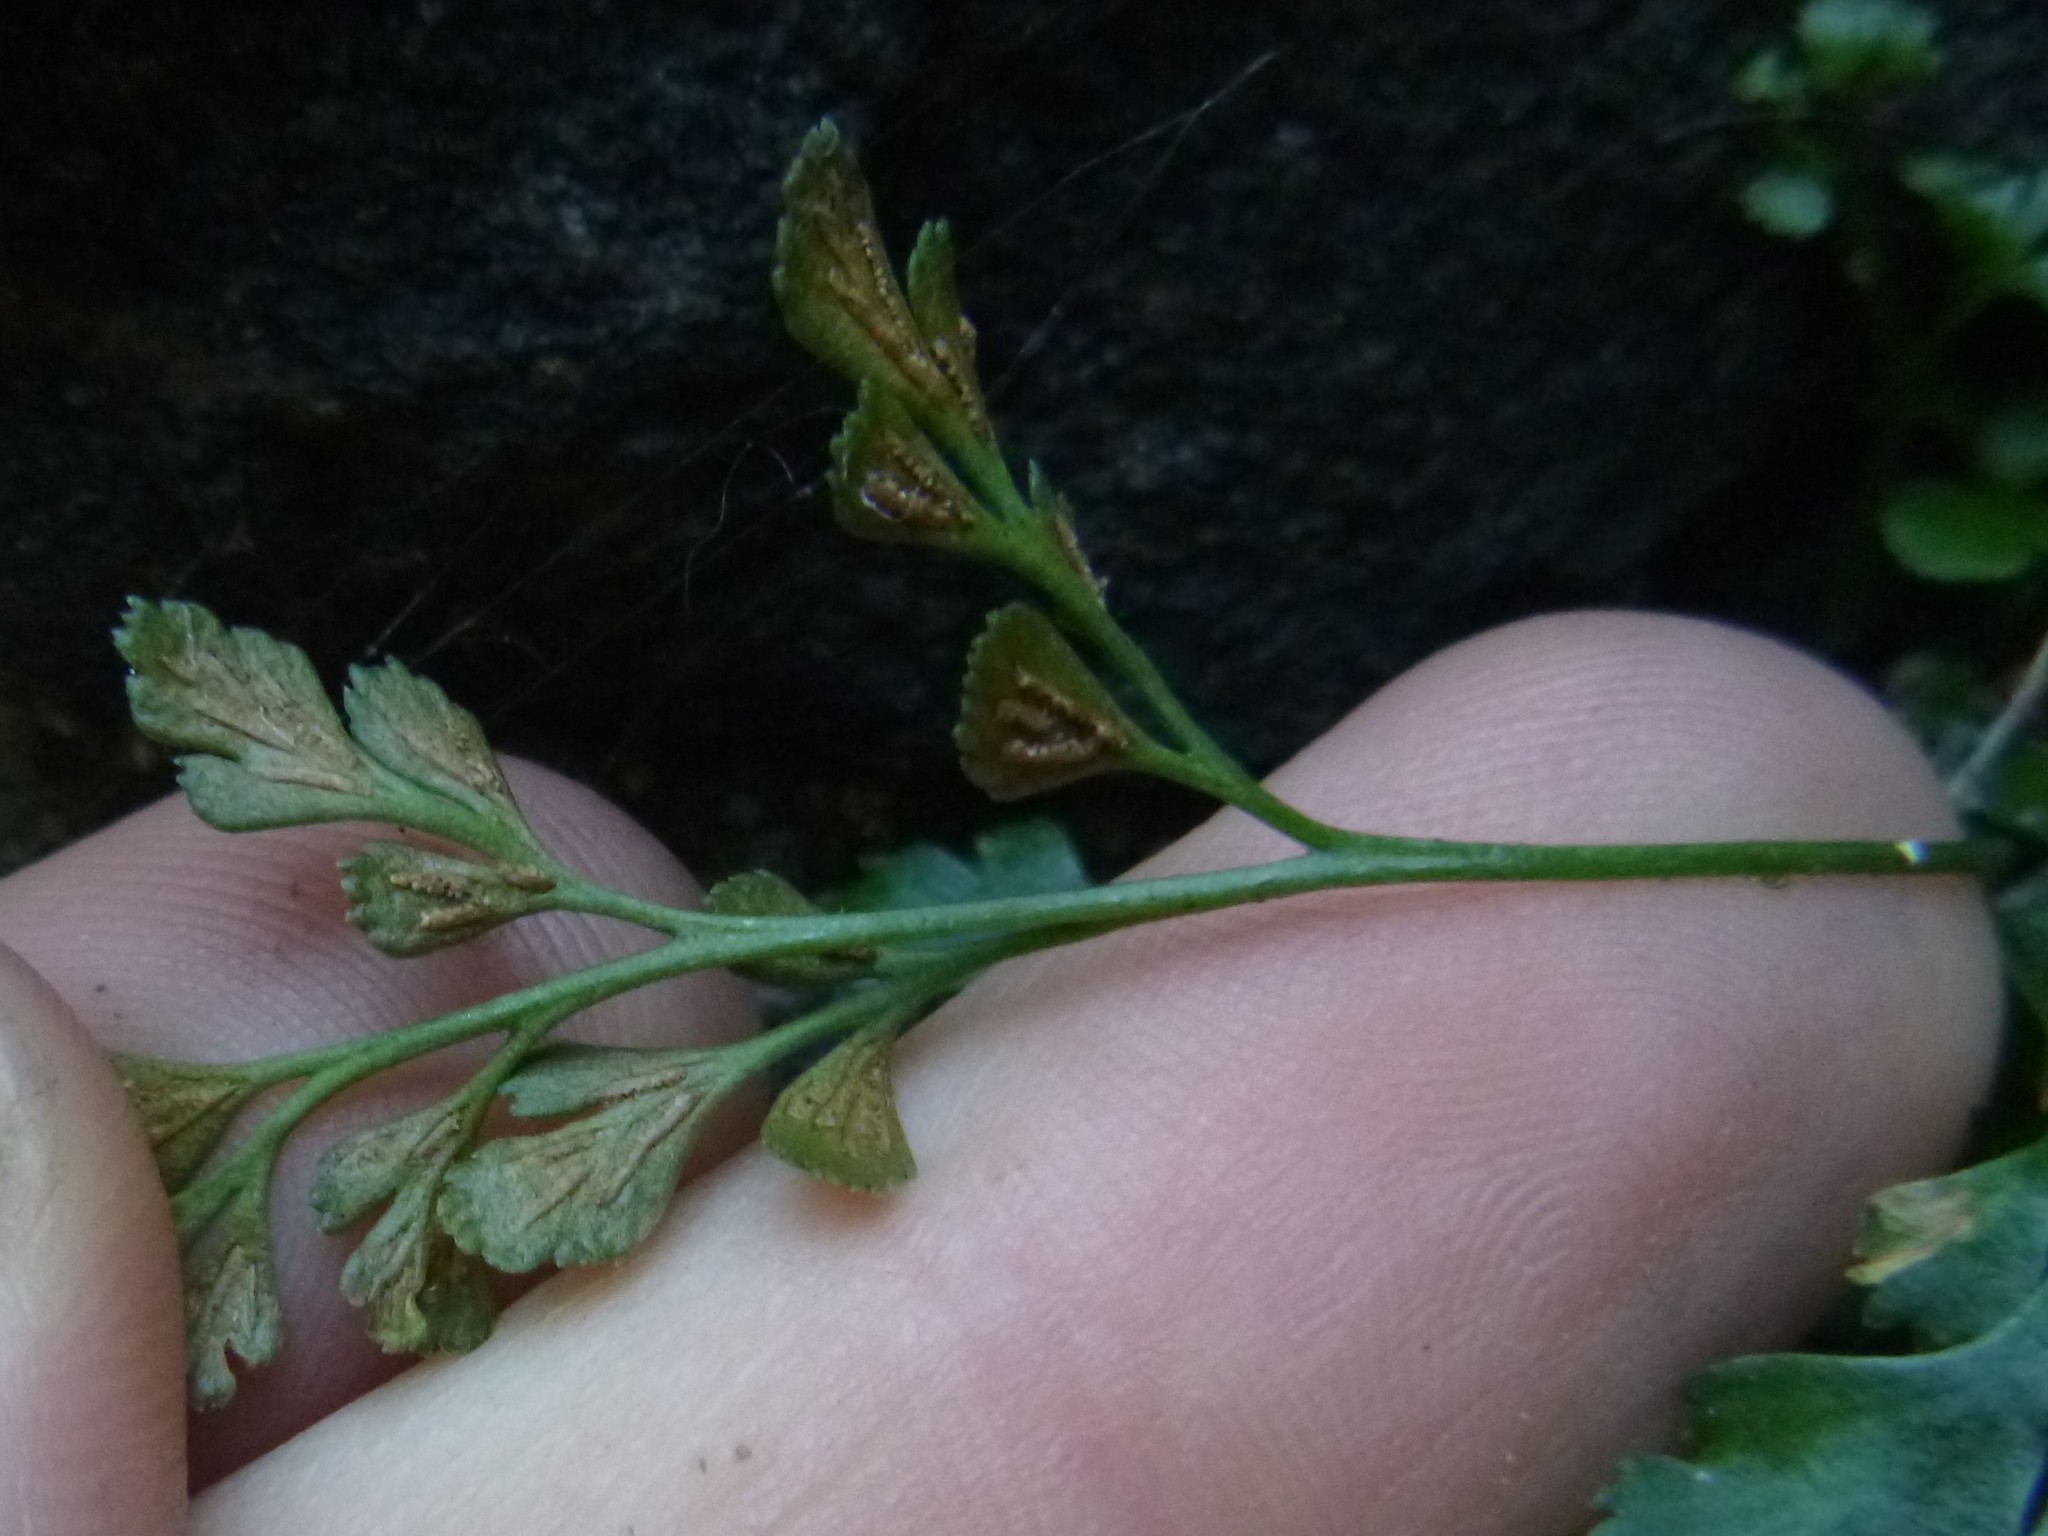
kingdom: Plantae
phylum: Tracheophyta
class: Polypodiopsida
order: Polypodiales
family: Aspleniaceae
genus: Asplenium
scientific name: Asplenium ruta-muraria
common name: Wall-rue
